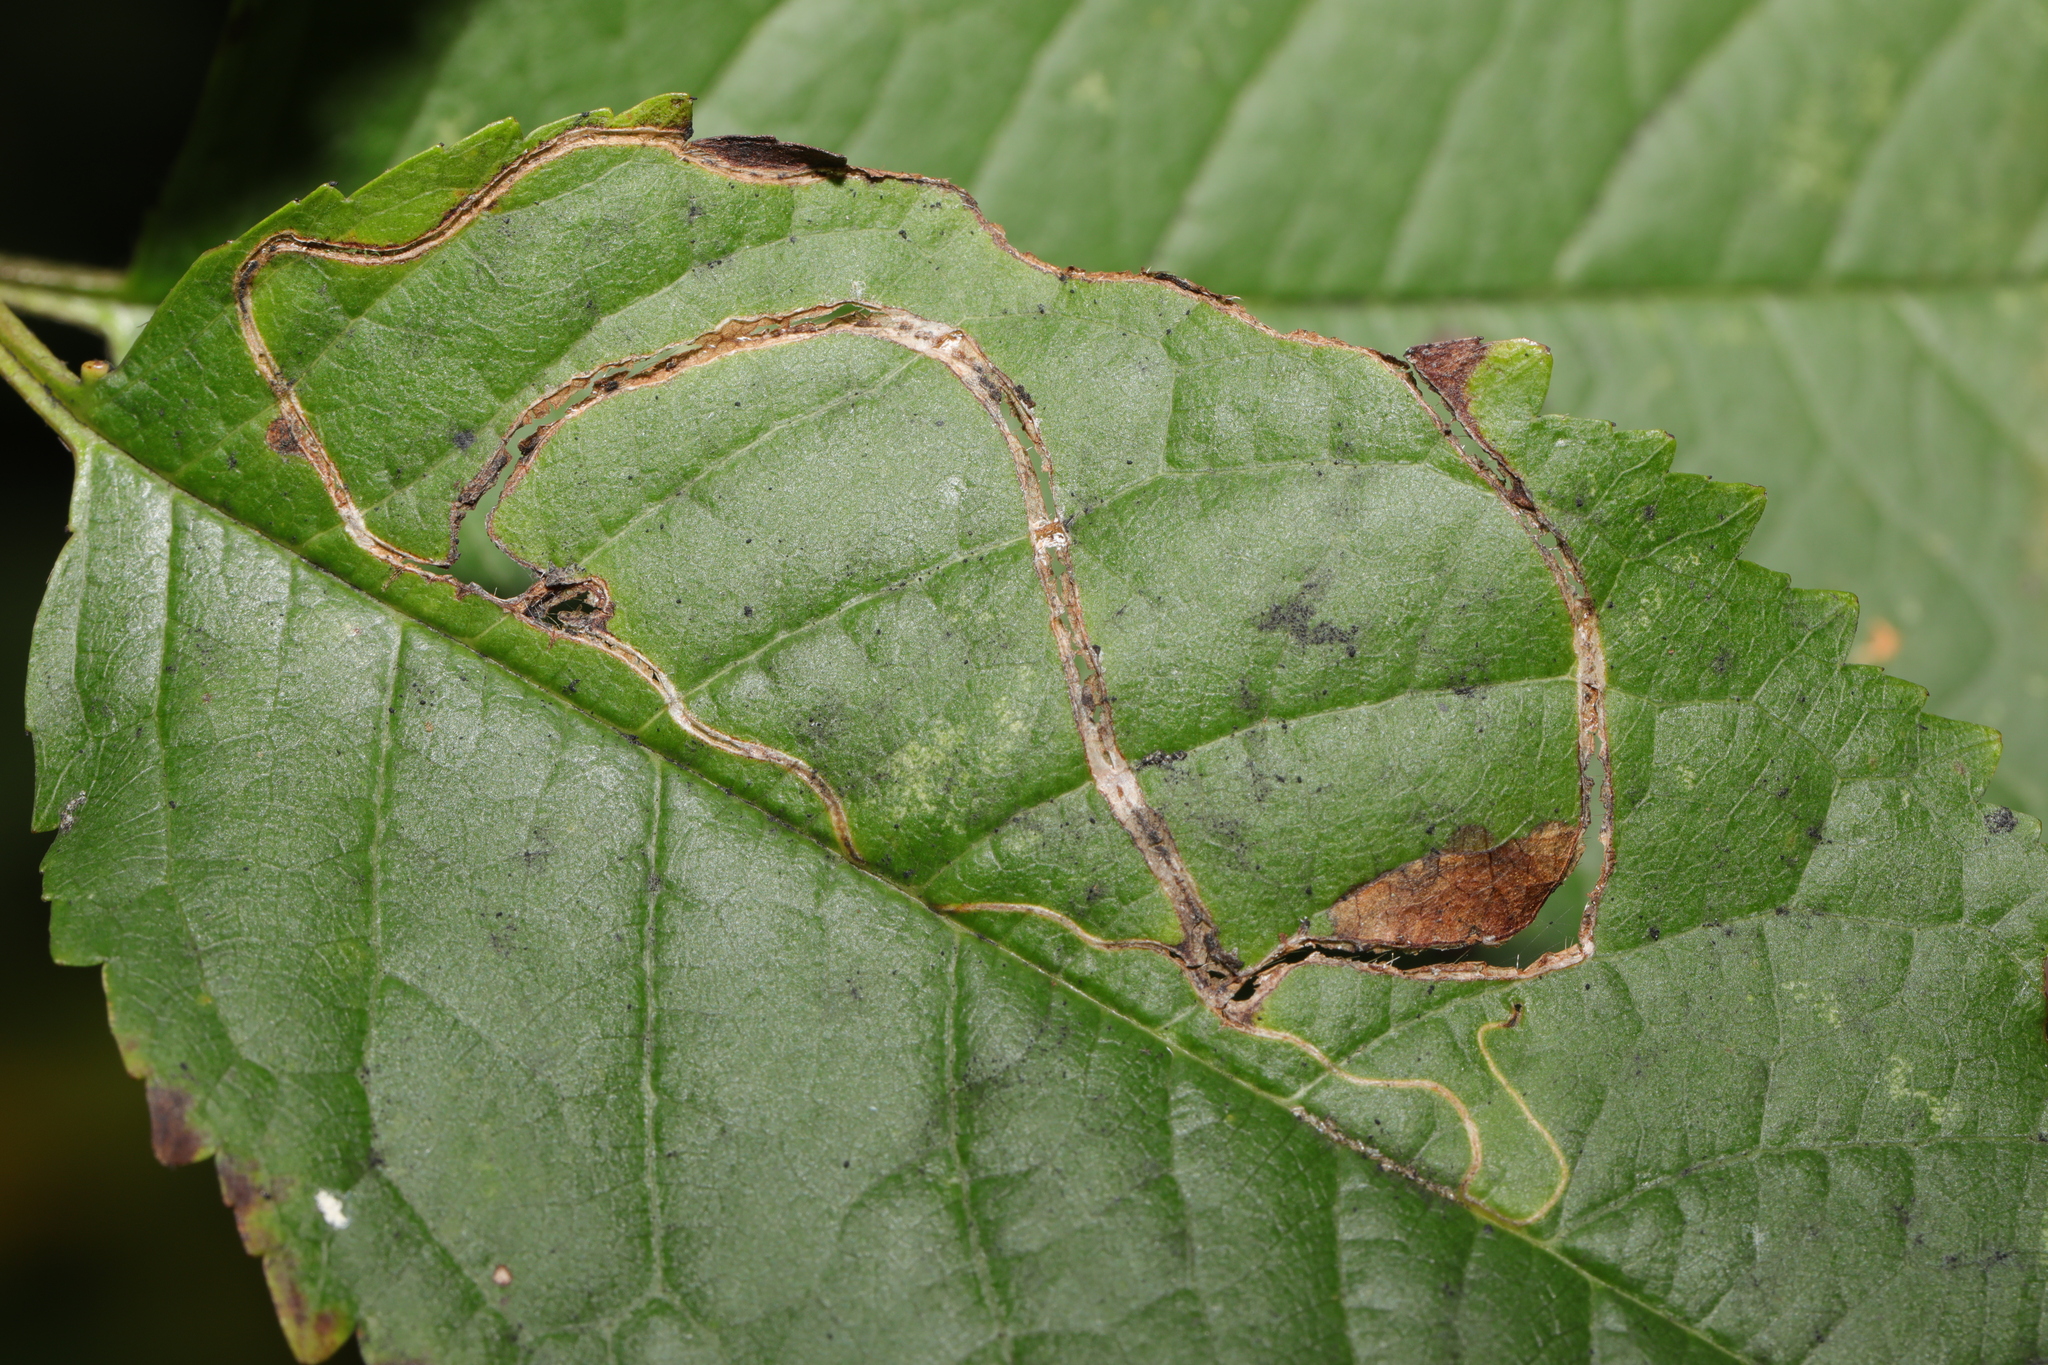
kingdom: Animalia
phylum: Arthropoda
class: Insecta
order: Lepidoptera
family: Lyonetiidae
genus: Lyonetia
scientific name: Lyonetia clerkella
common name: Apple leaf miner
